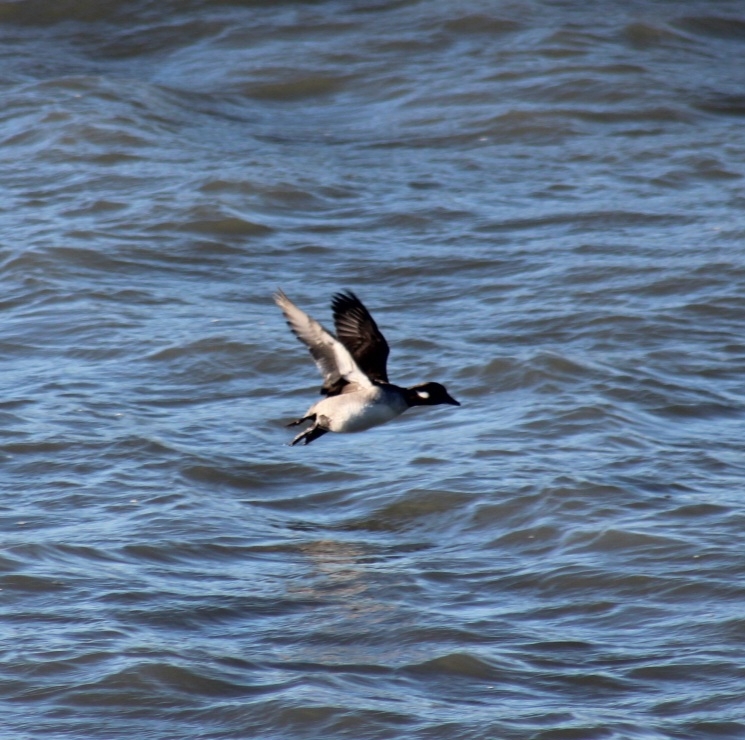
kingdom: Animalia
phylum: Chordata
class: Aves
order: Anseriformes
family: Anatidae
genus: Bucephala
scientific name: Bucephala albeola
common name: Bufflehead
